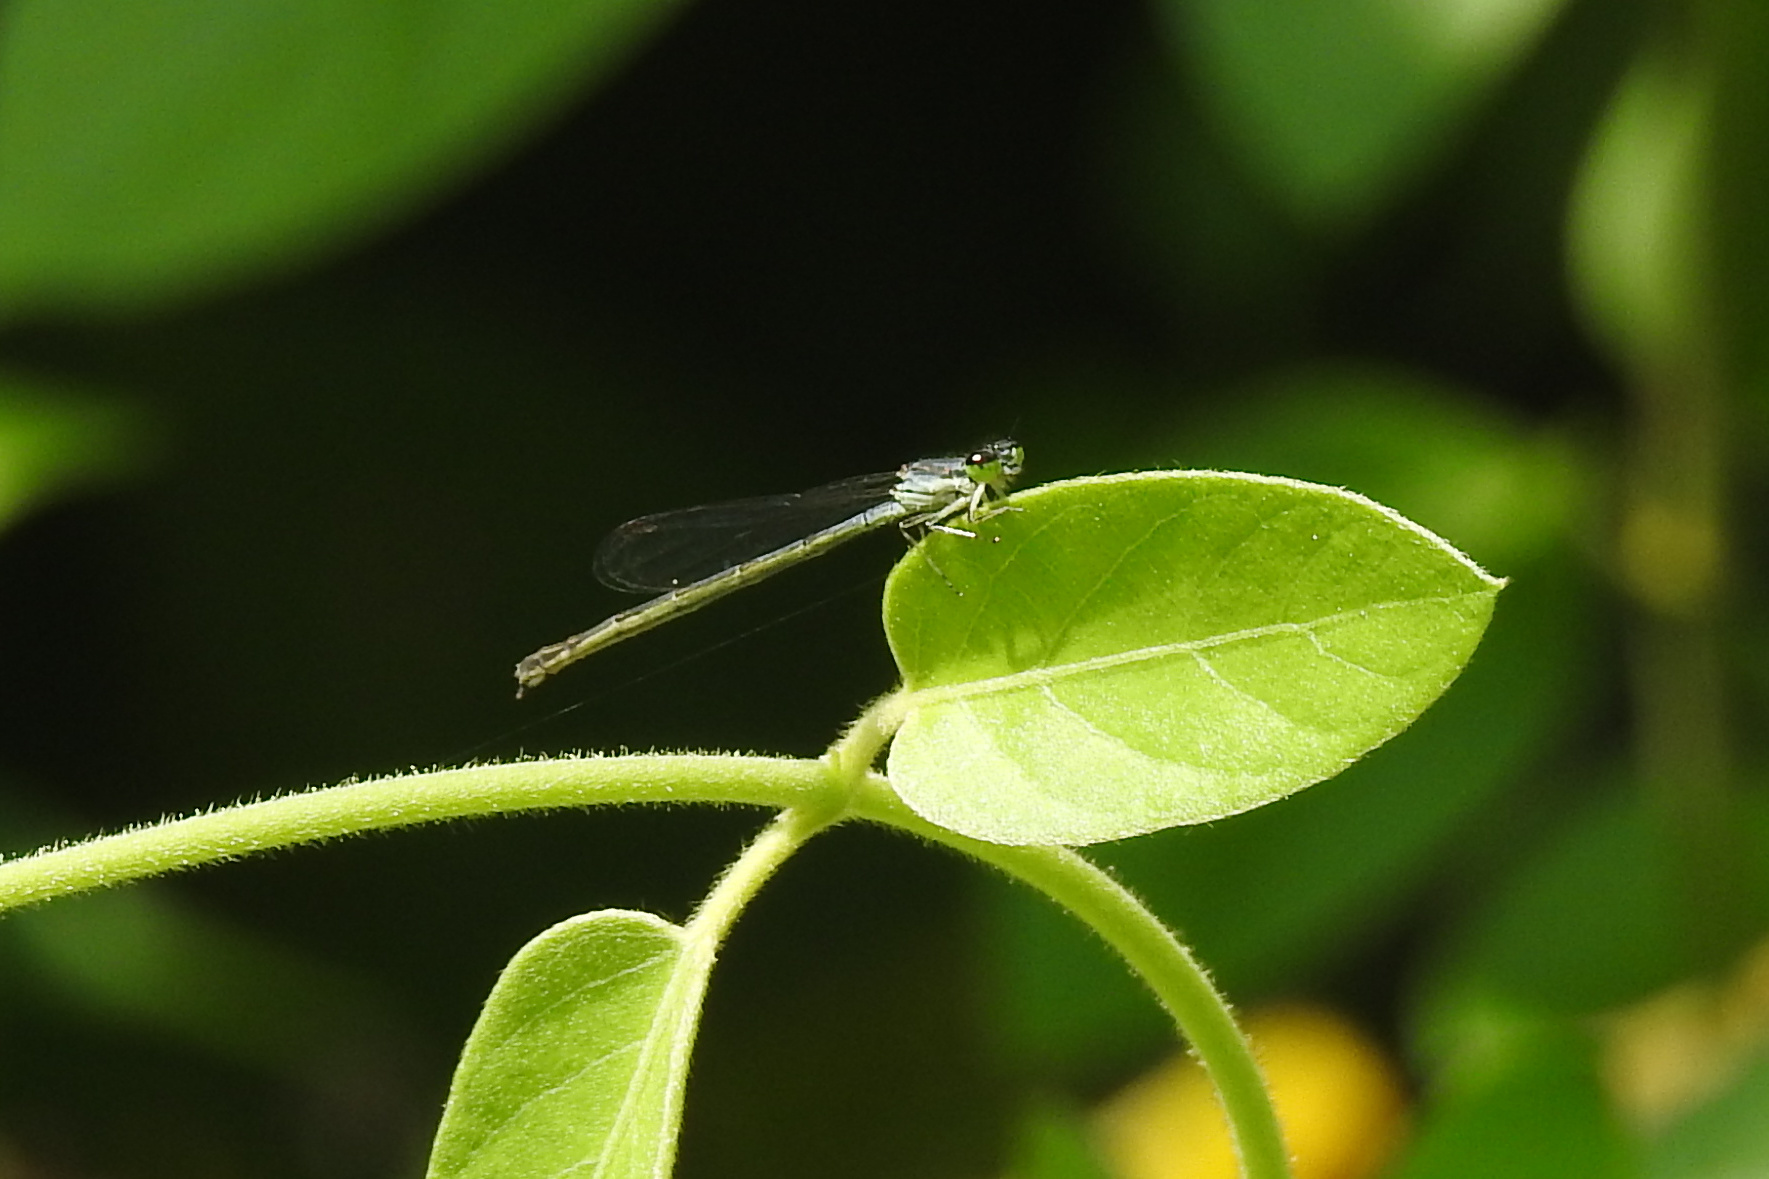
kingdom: Animalia
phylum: Arthropoda
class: Insecta
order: Odonata
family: Coenagrionidae
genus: Ischnura
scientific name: Ischnura posita
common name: Fragile forktail
